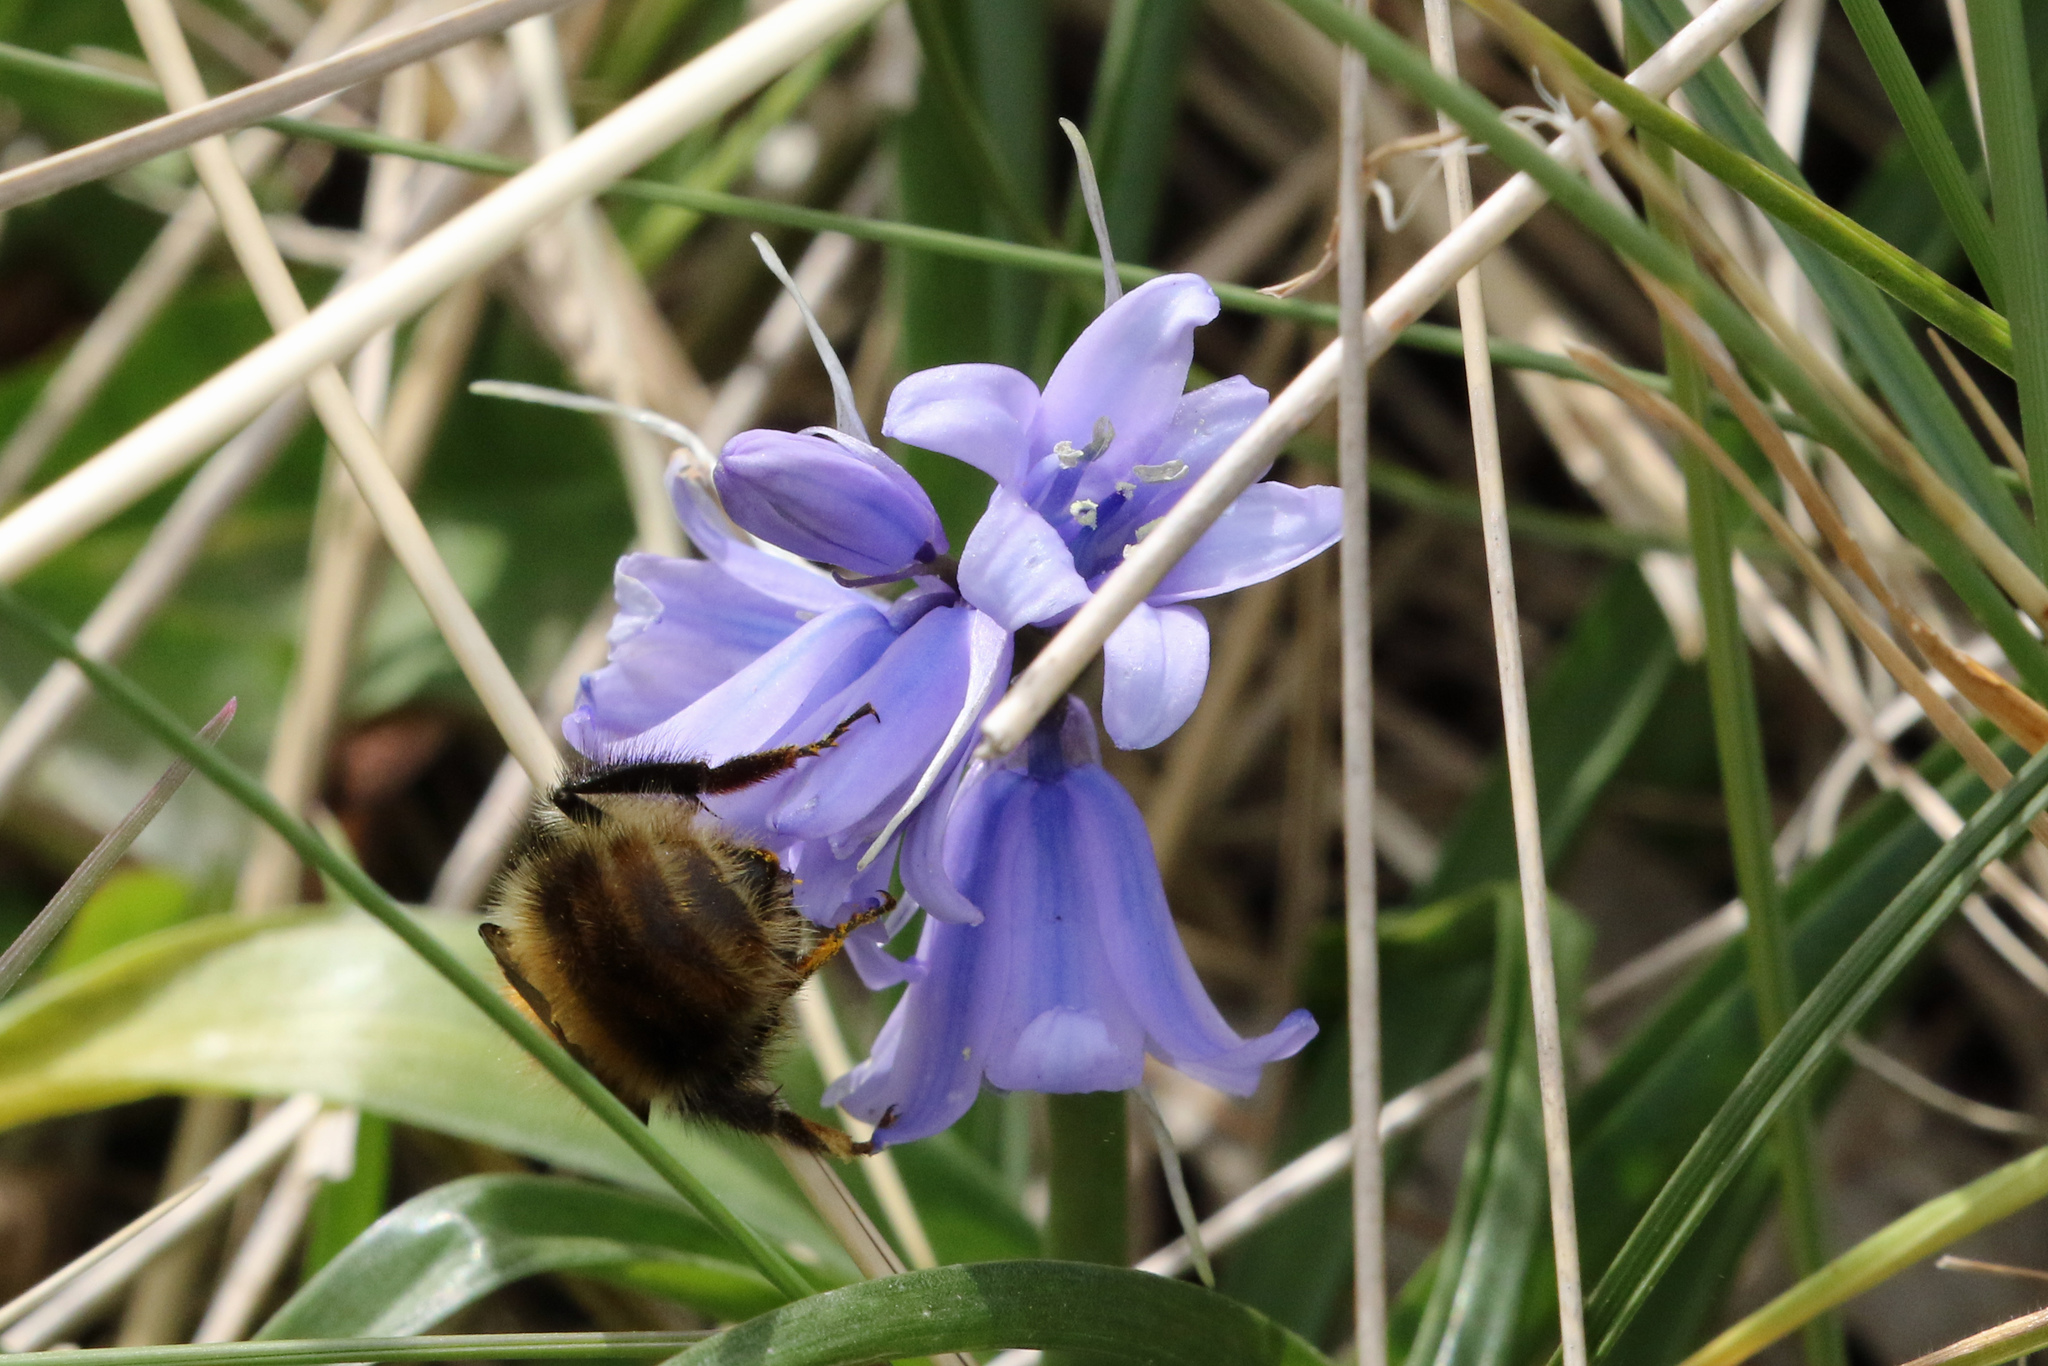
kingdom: Animalia
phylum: Arthropoda
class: Insecta
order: Hymenoptera
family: Apidae
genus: Bombus
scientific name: Bombus pascuorum
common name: Common carder bee
